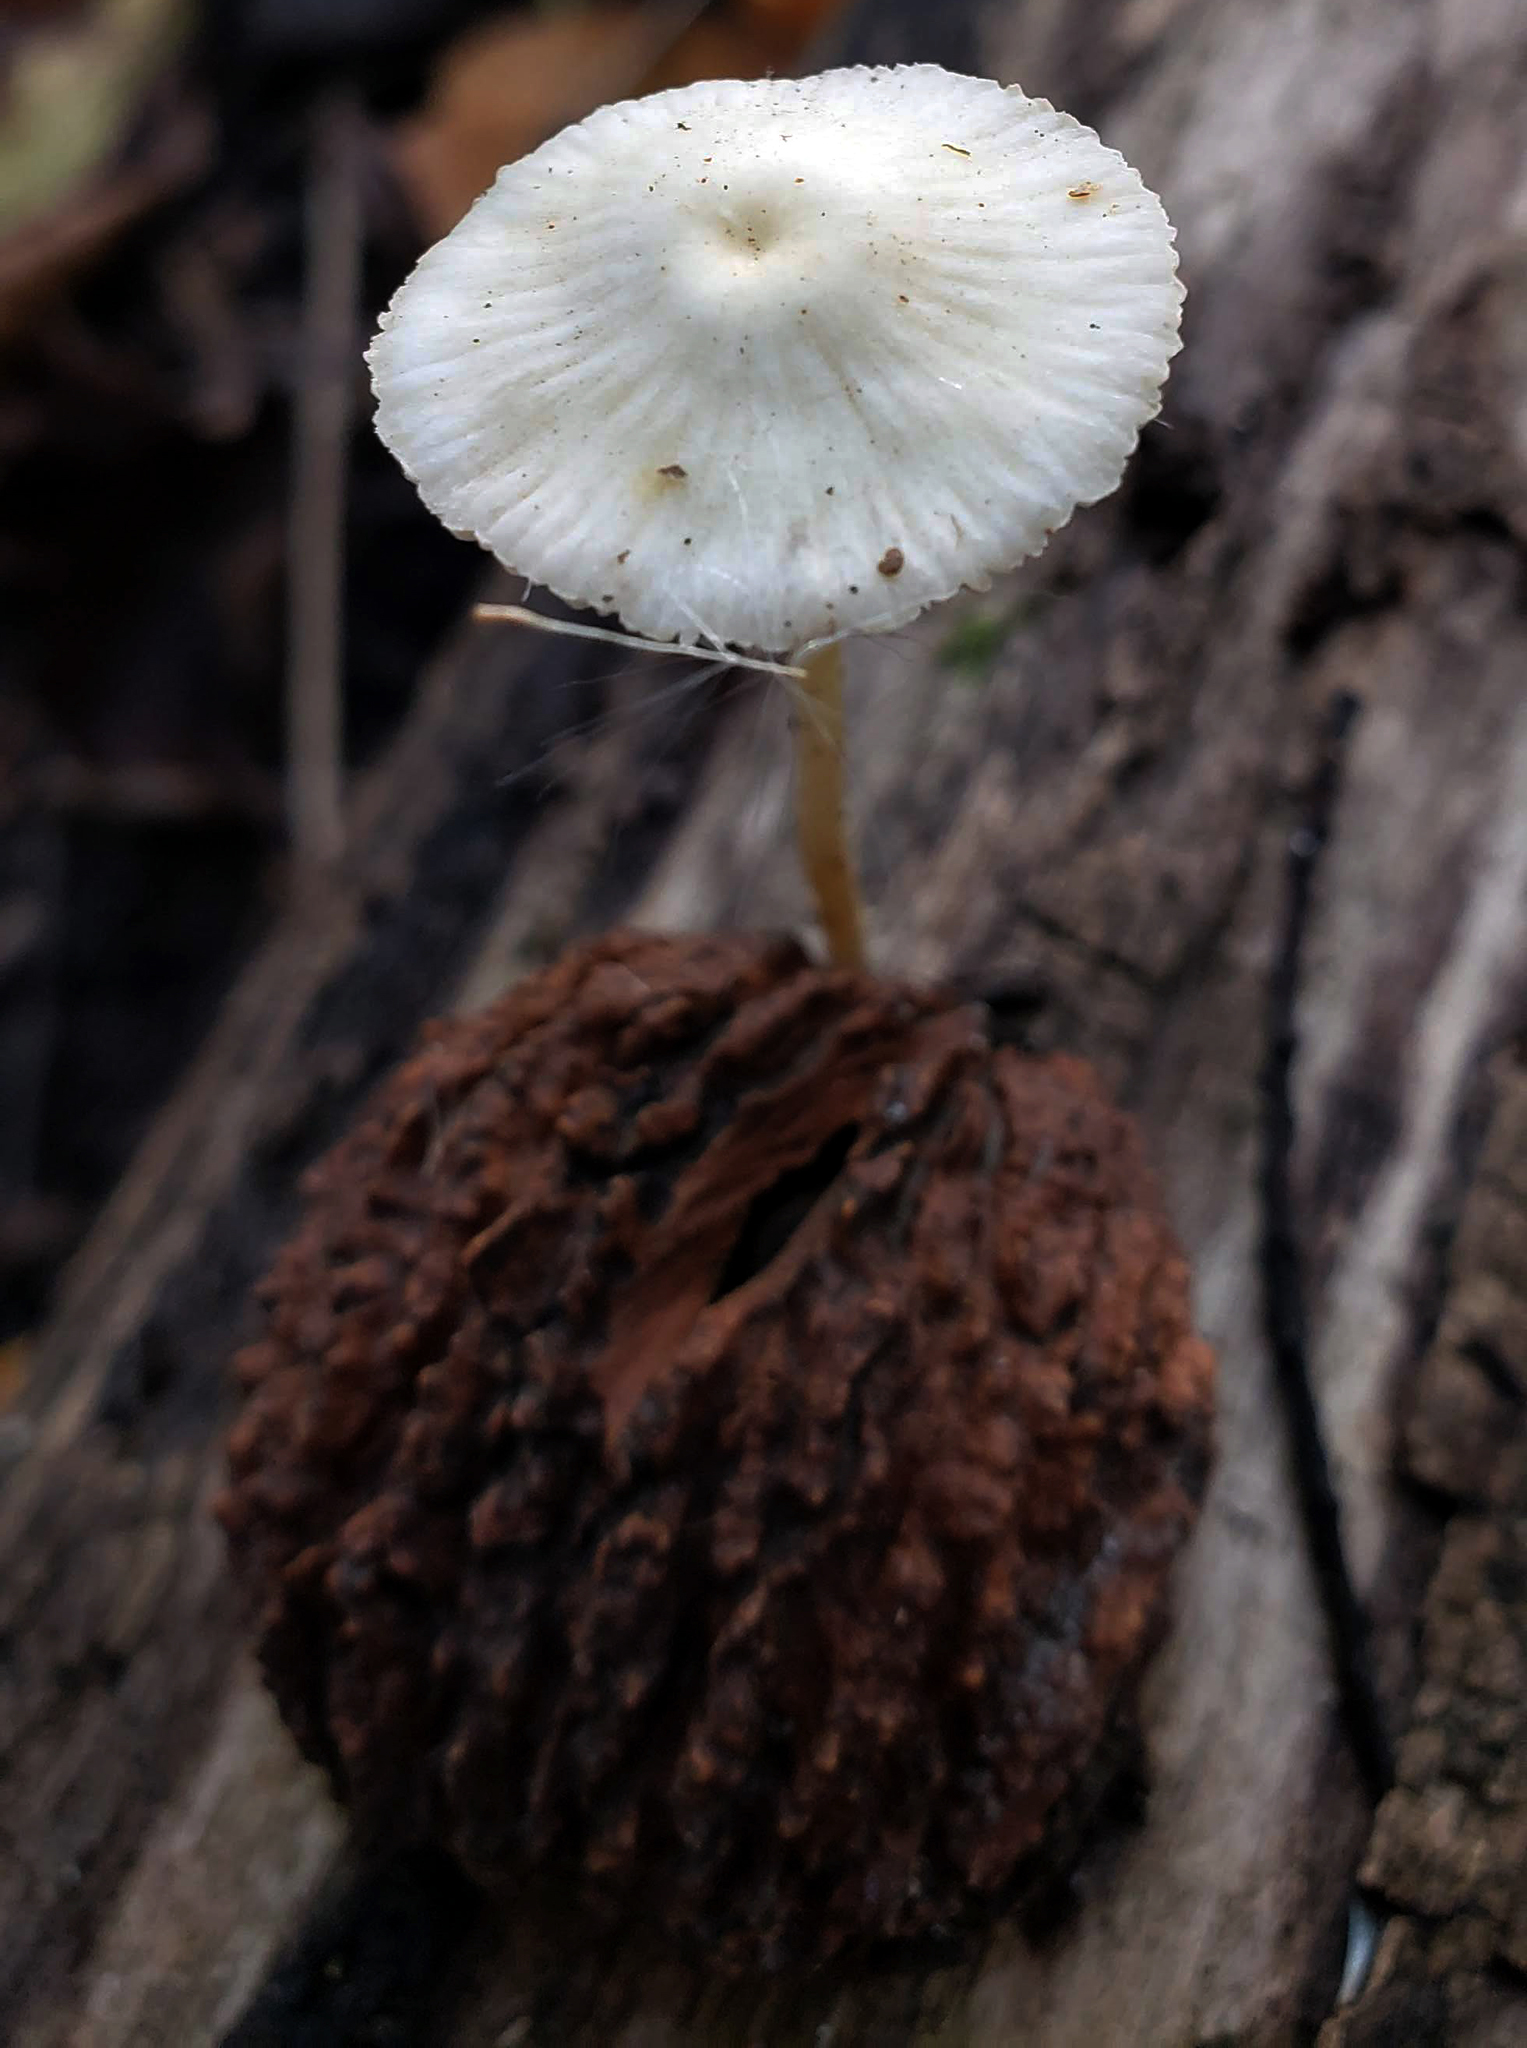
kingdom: Fungi
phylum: Basidiomycota
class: Agaricomycetes
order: Agaricales
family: Mycenaceae
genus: Mycena
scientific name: Mycena crocea
